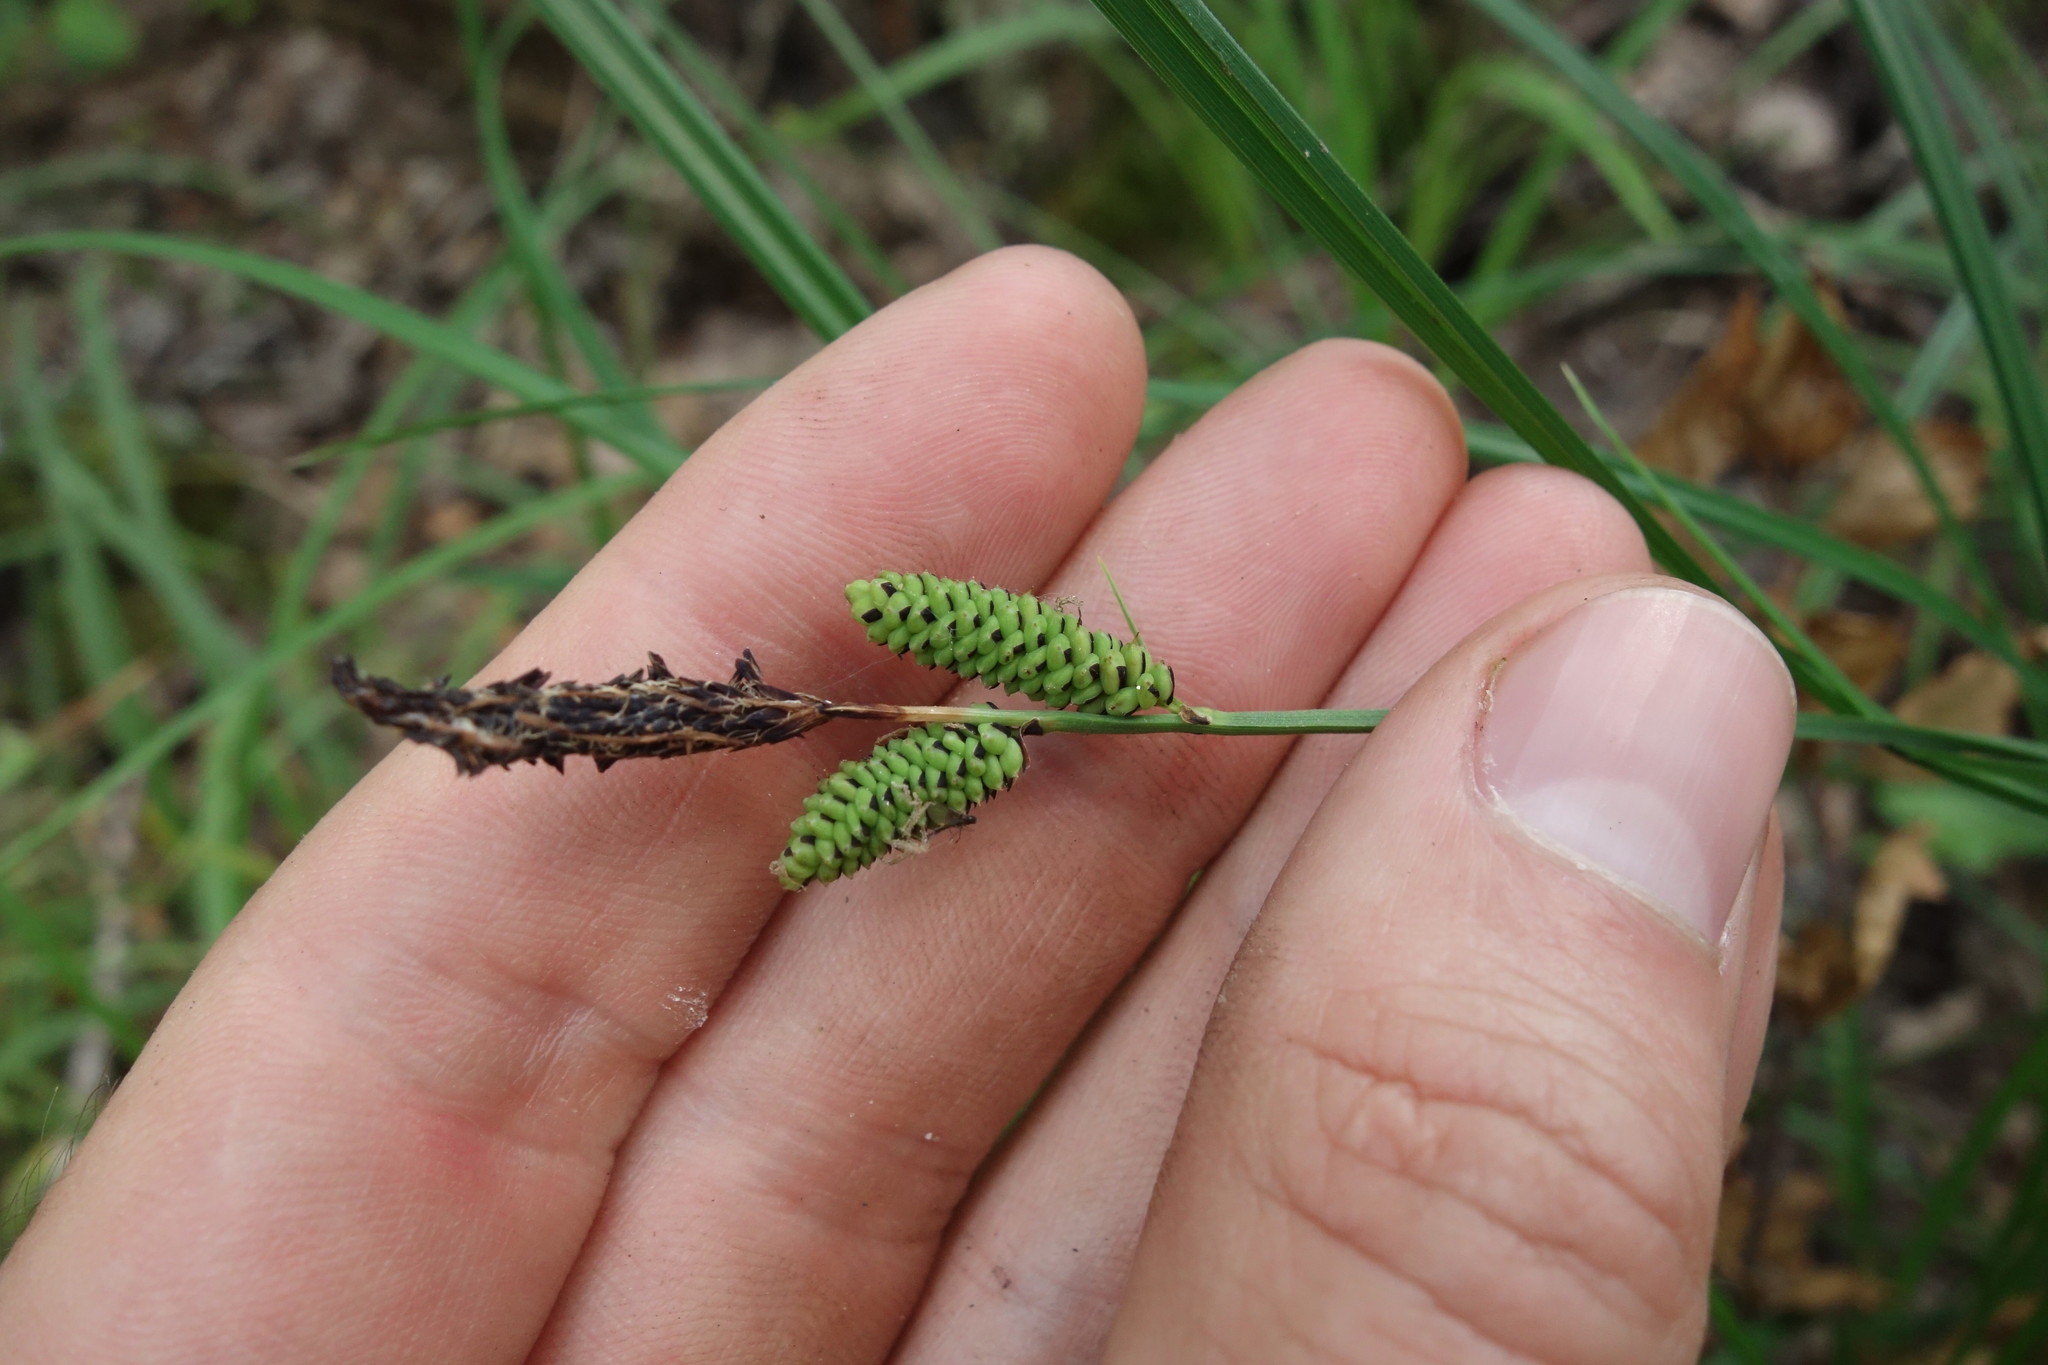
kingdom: Plantae
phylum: Tracheophyta
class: Liliopsida
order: Poales
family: Cyperaceae
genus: Carex
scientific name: Carex cespitosa
